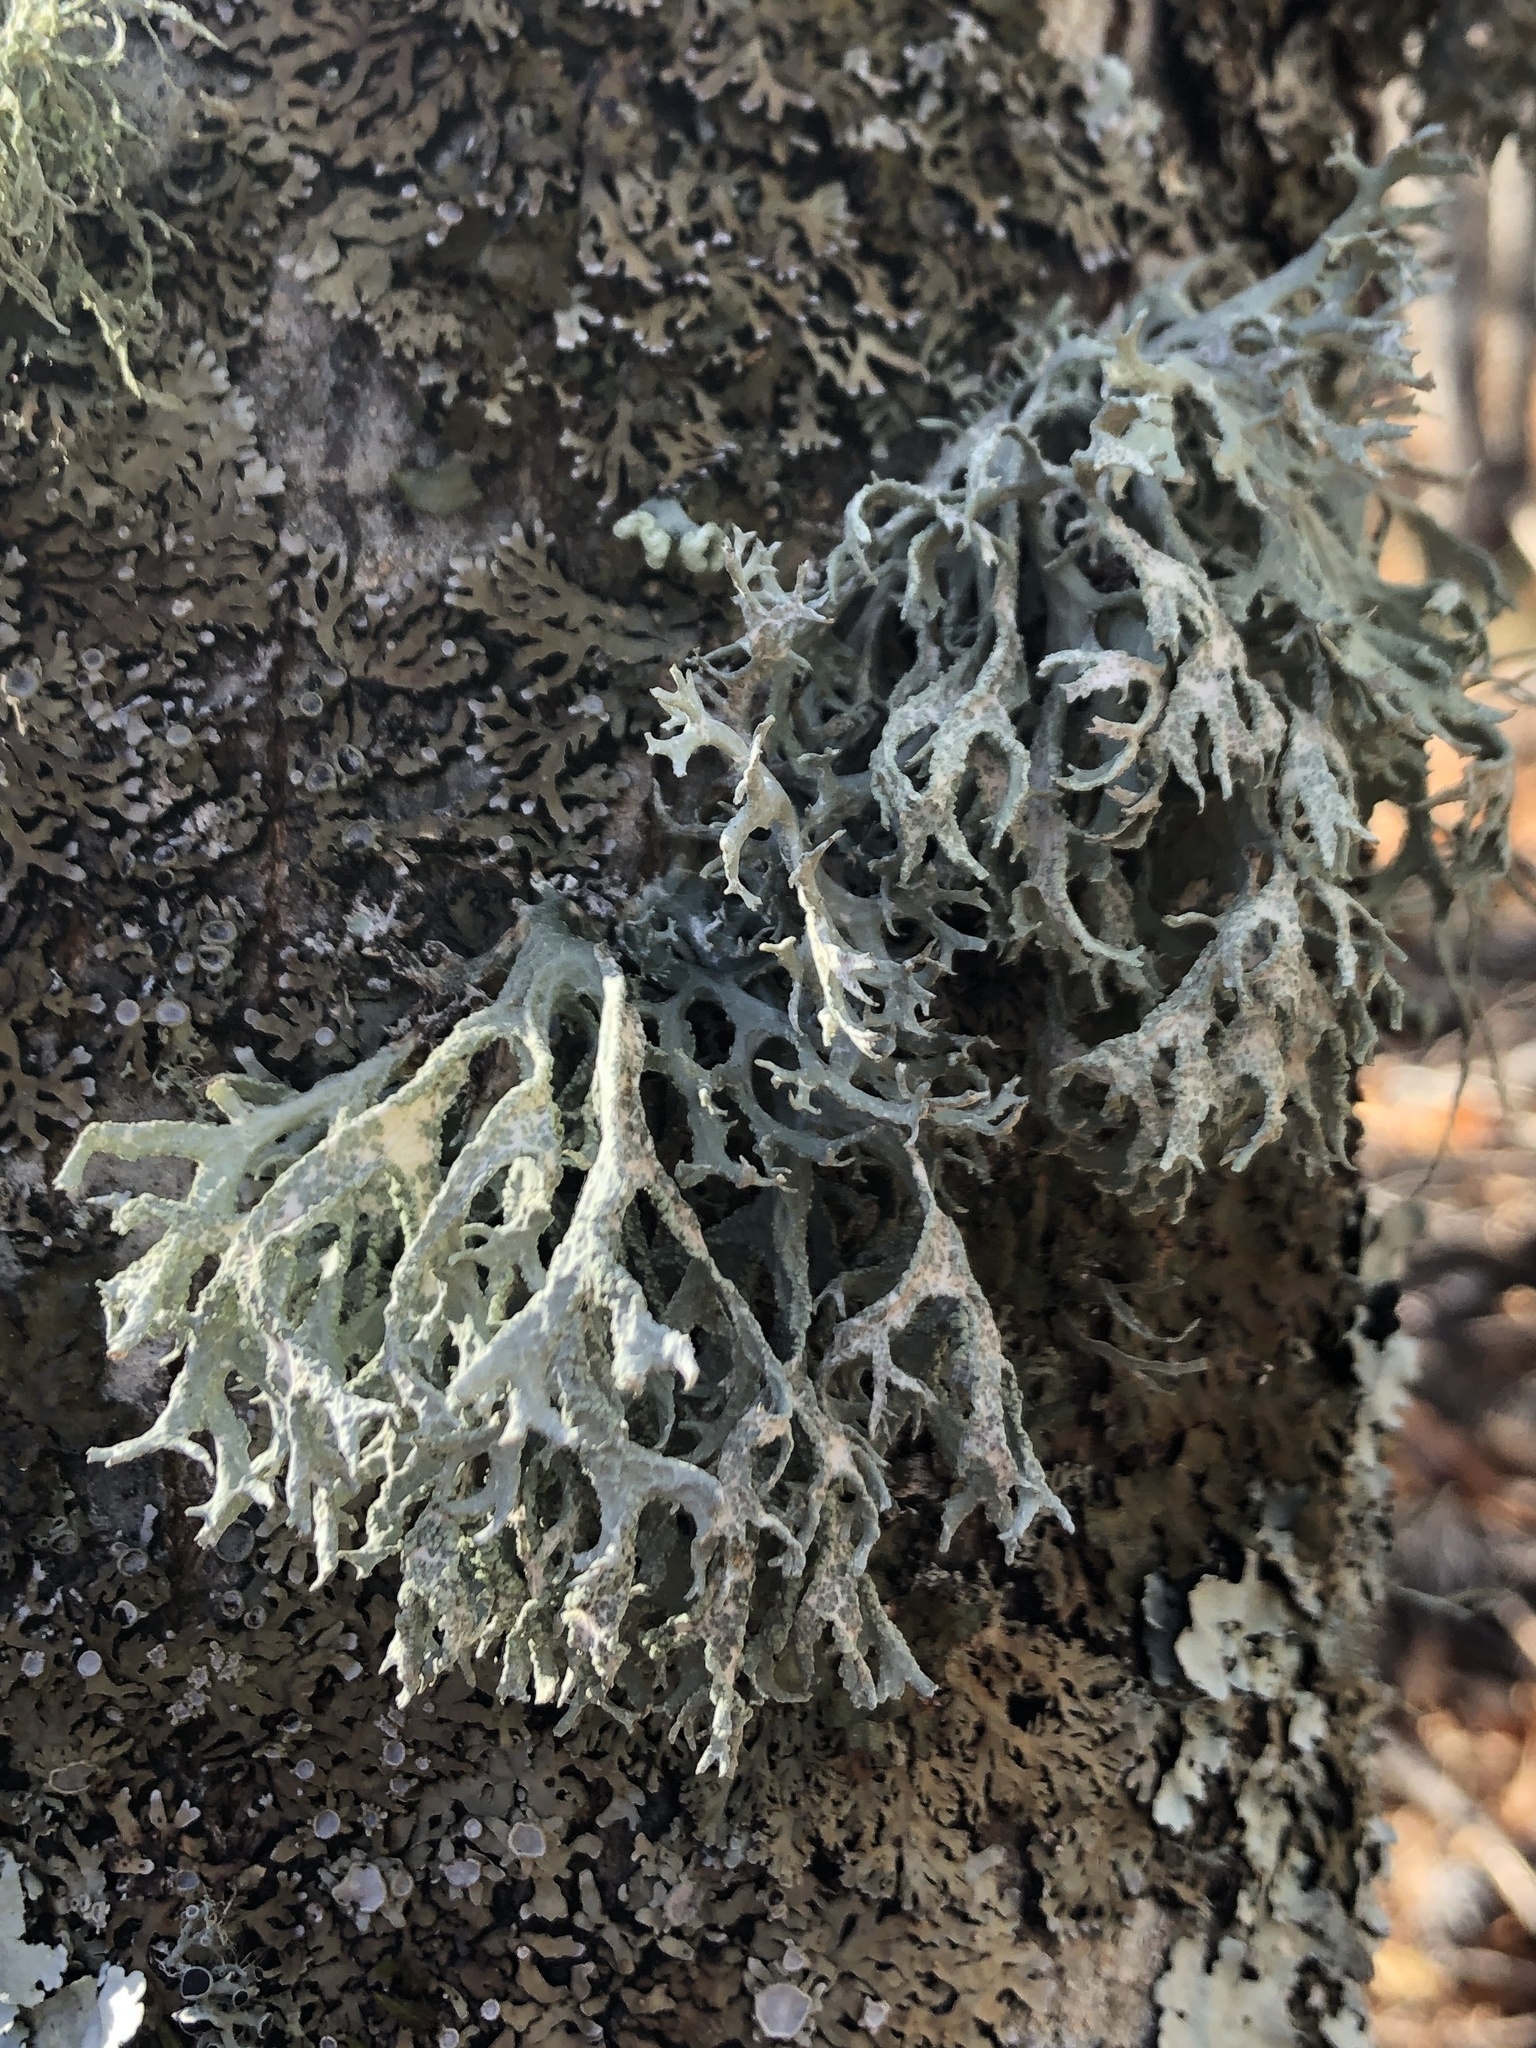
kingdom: Fungi
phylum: Ascomycota
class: Lecanoromycetes
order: Lecanorales
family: Parmeliaceae
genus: Evernia
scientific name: Evernia prunastri
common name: Oak moss
